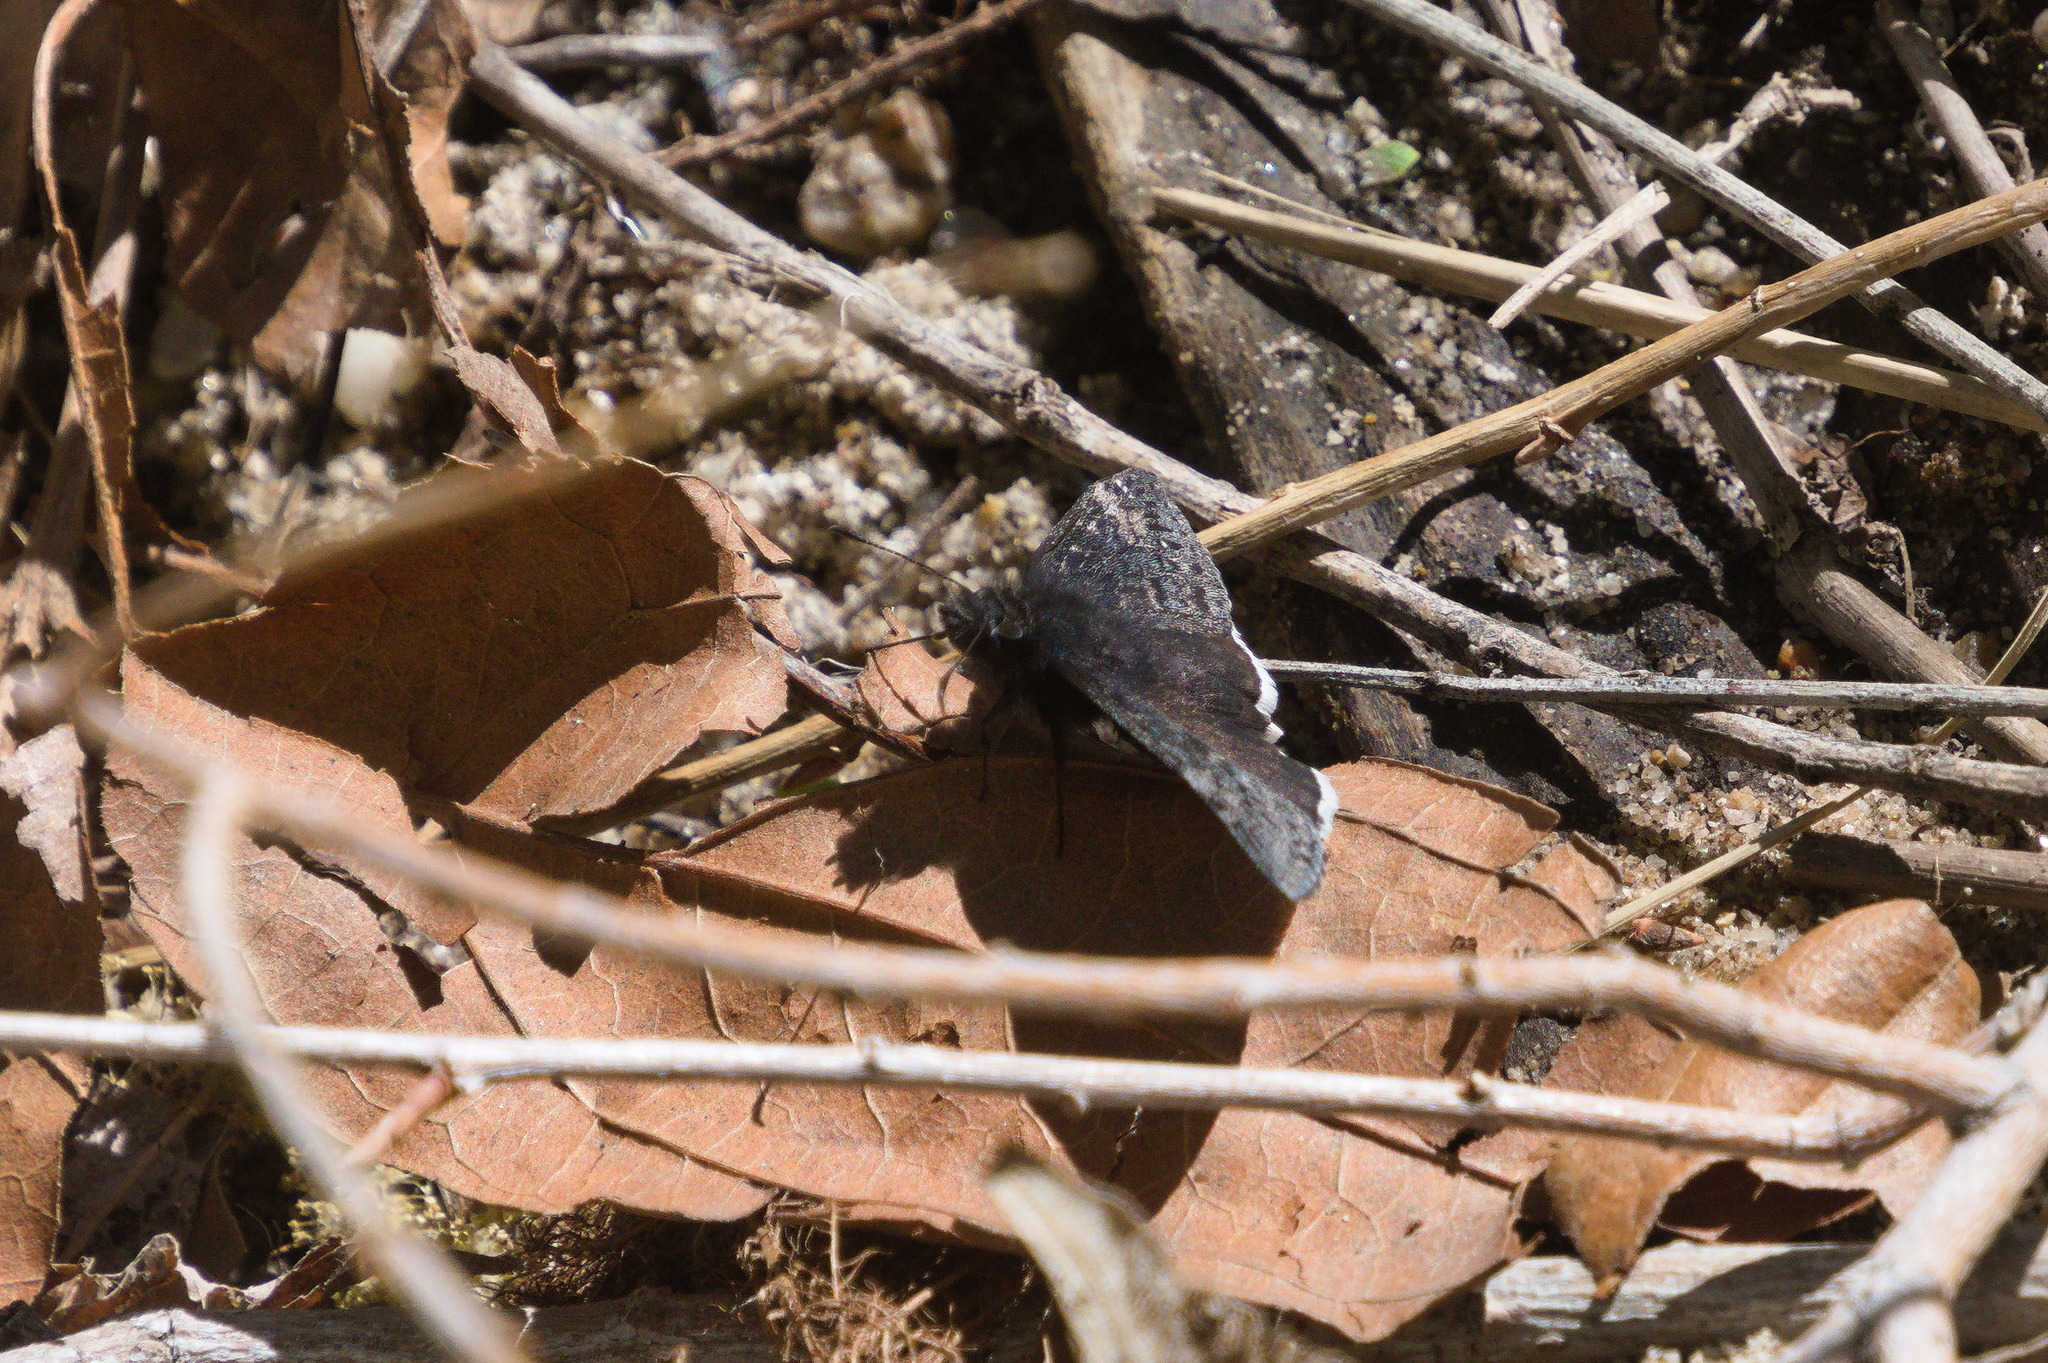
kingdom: Animalia
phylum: Arthropoda
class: Insecta
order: Lepidoptera
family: Hesperiidae
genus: Erynnis
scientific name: Erynnis funeralis
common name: Funereal duskywing
